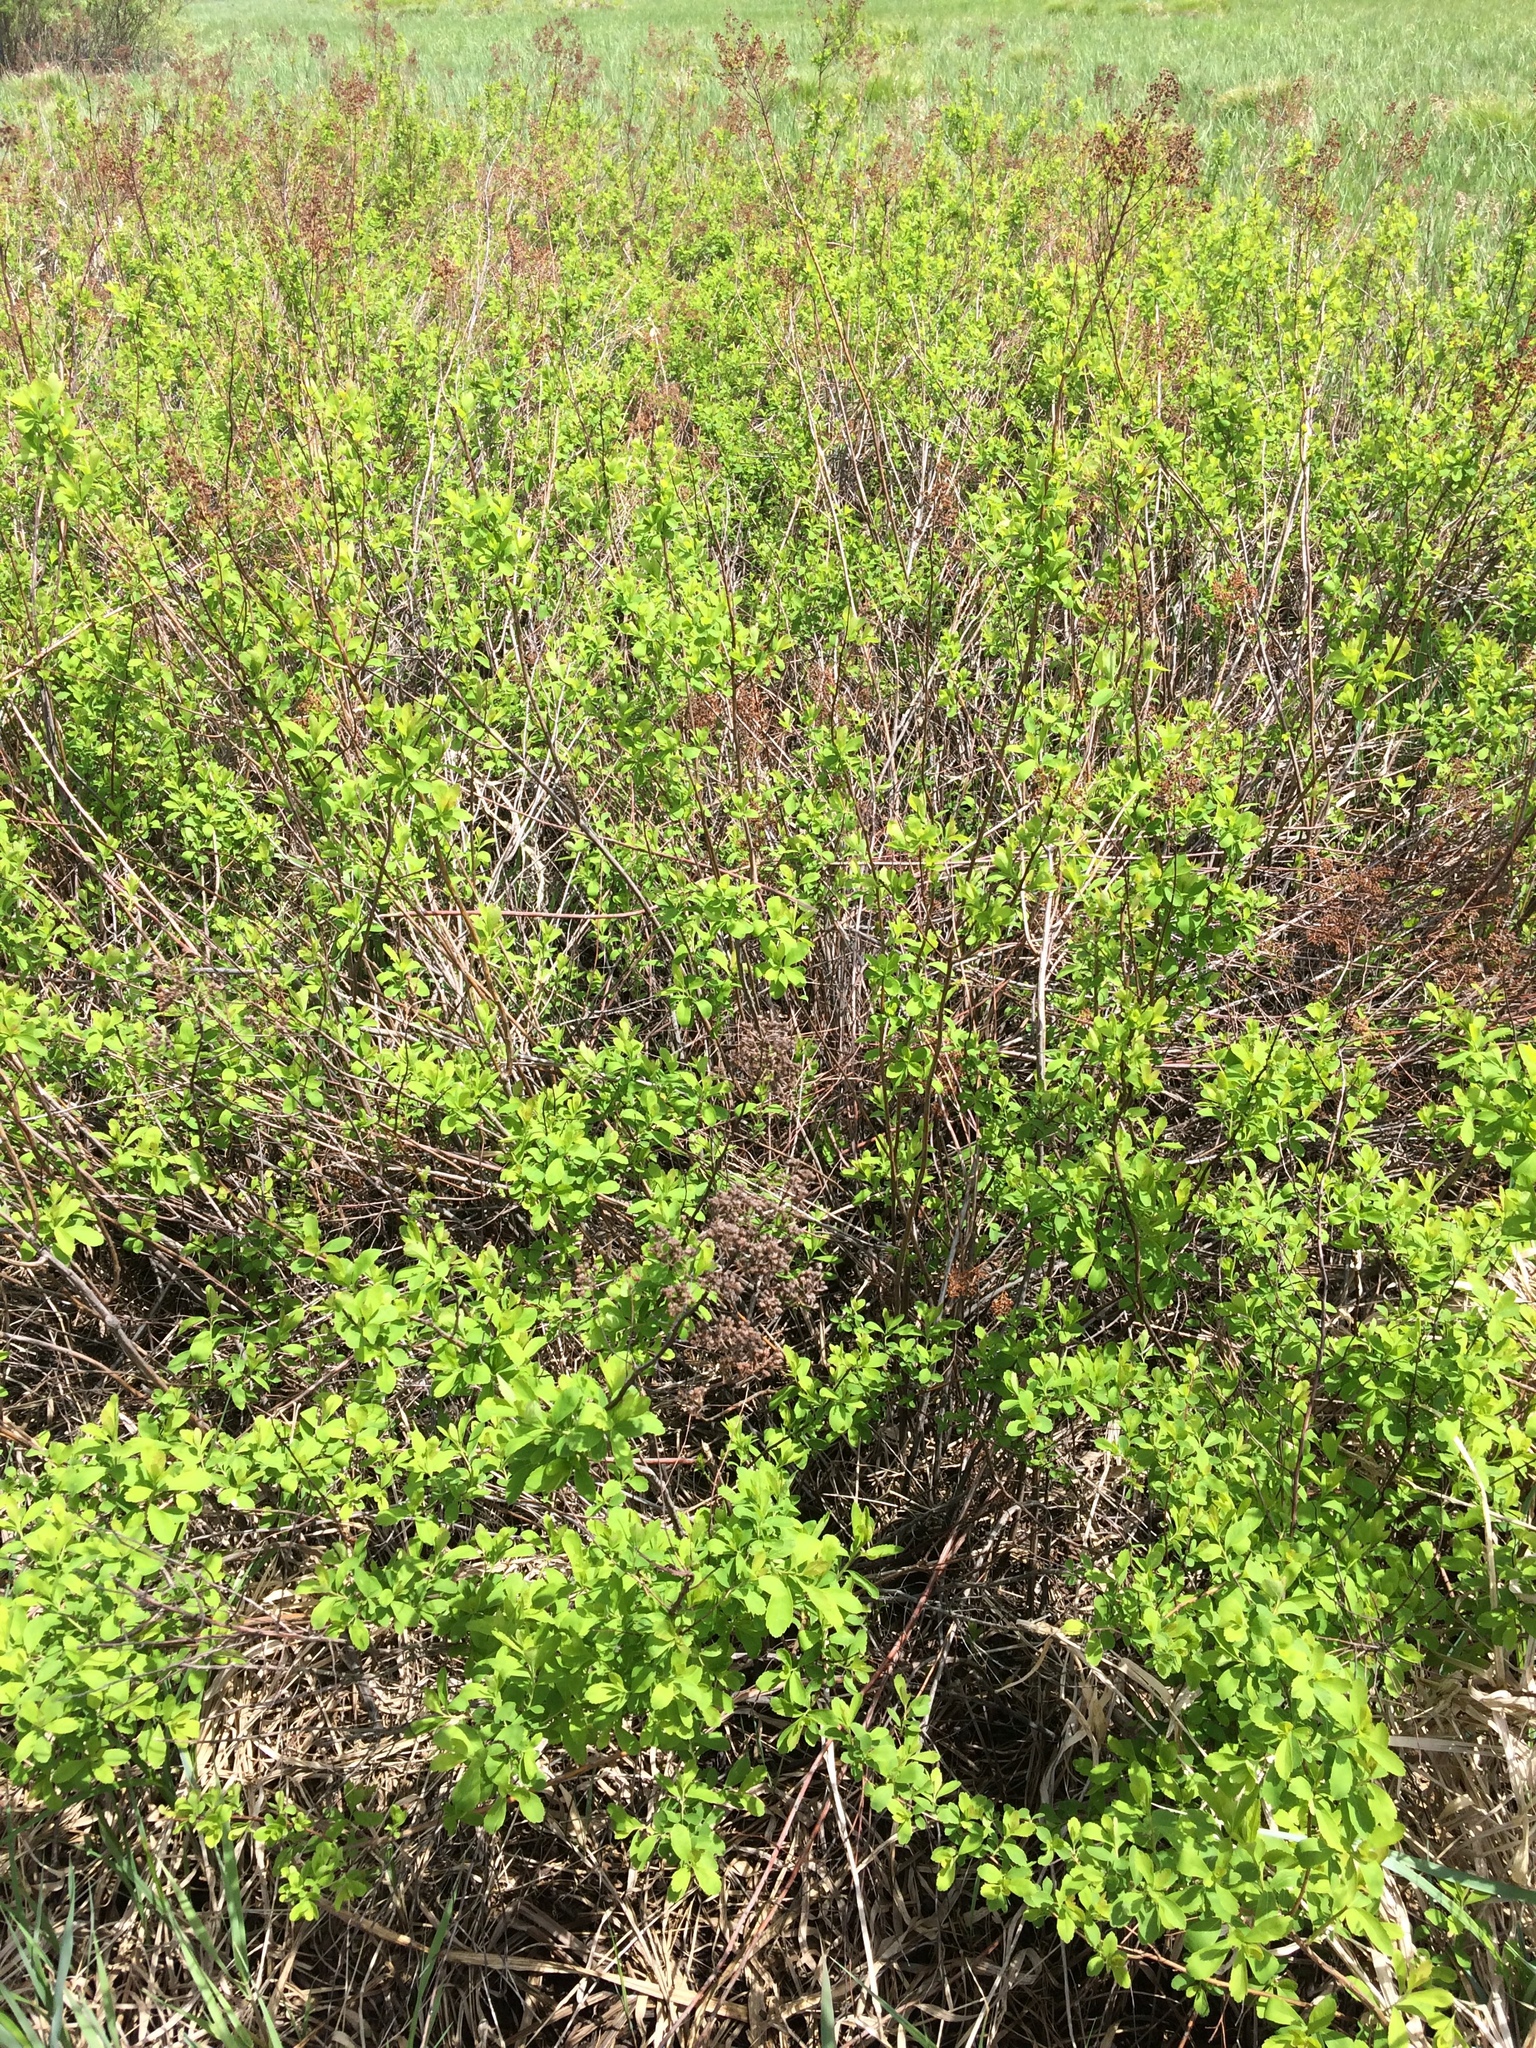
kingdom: Plantae
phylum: Tracheophyta
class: Magnoliopsida
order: Rosales
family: Rosaceae
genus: Spiraea
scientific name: Spiraea alba
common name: Pale bridewort
